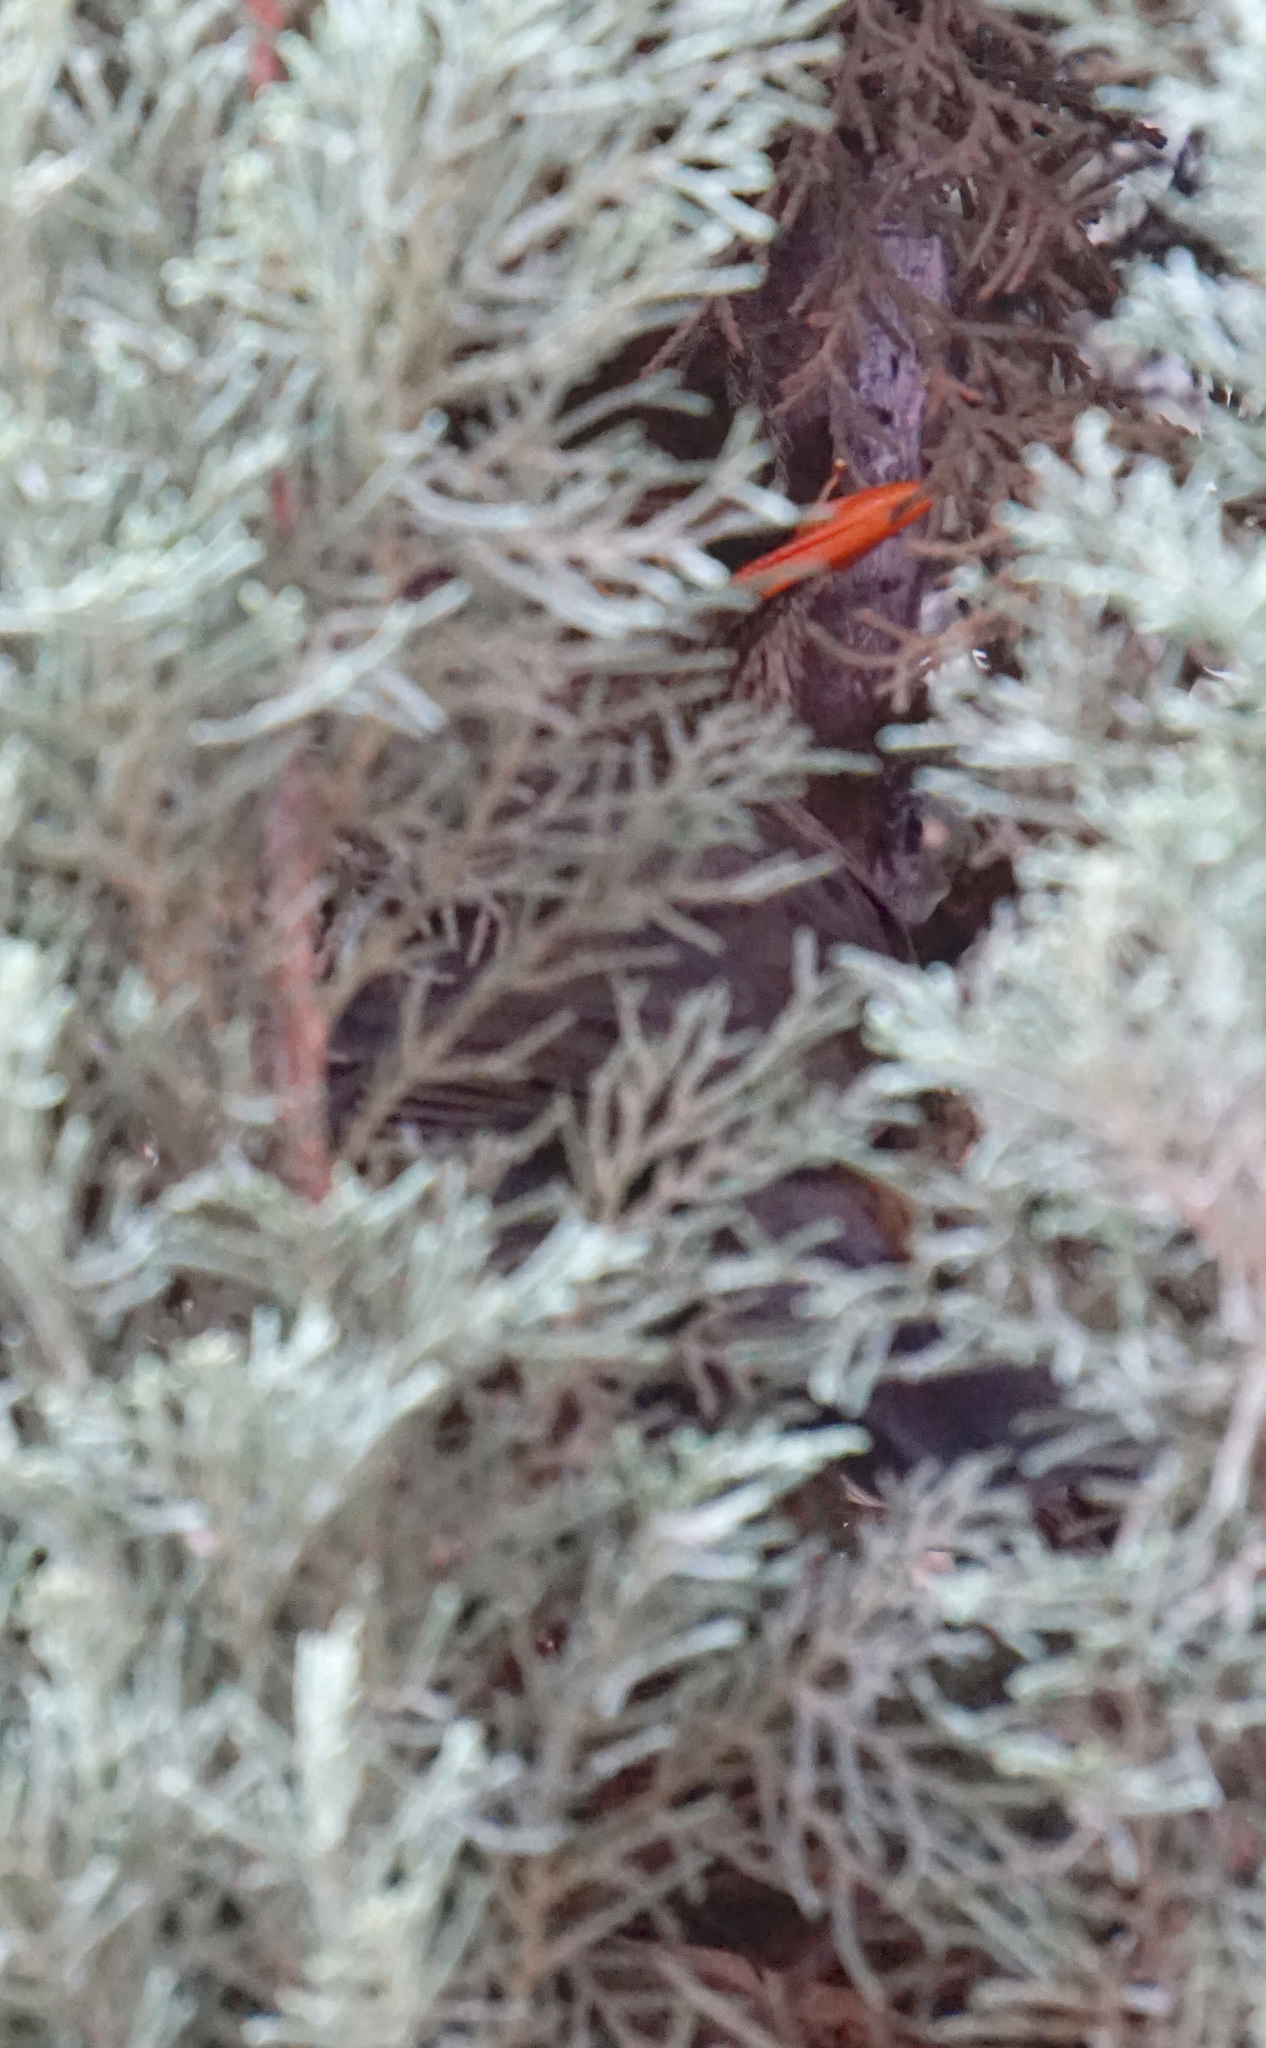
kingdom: Animalia
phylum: Chordata
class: Aves
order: Passeriformes
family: Turdidae
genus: Turdus
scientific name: Turdus abyssinicus
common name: Abyssinian thrush
